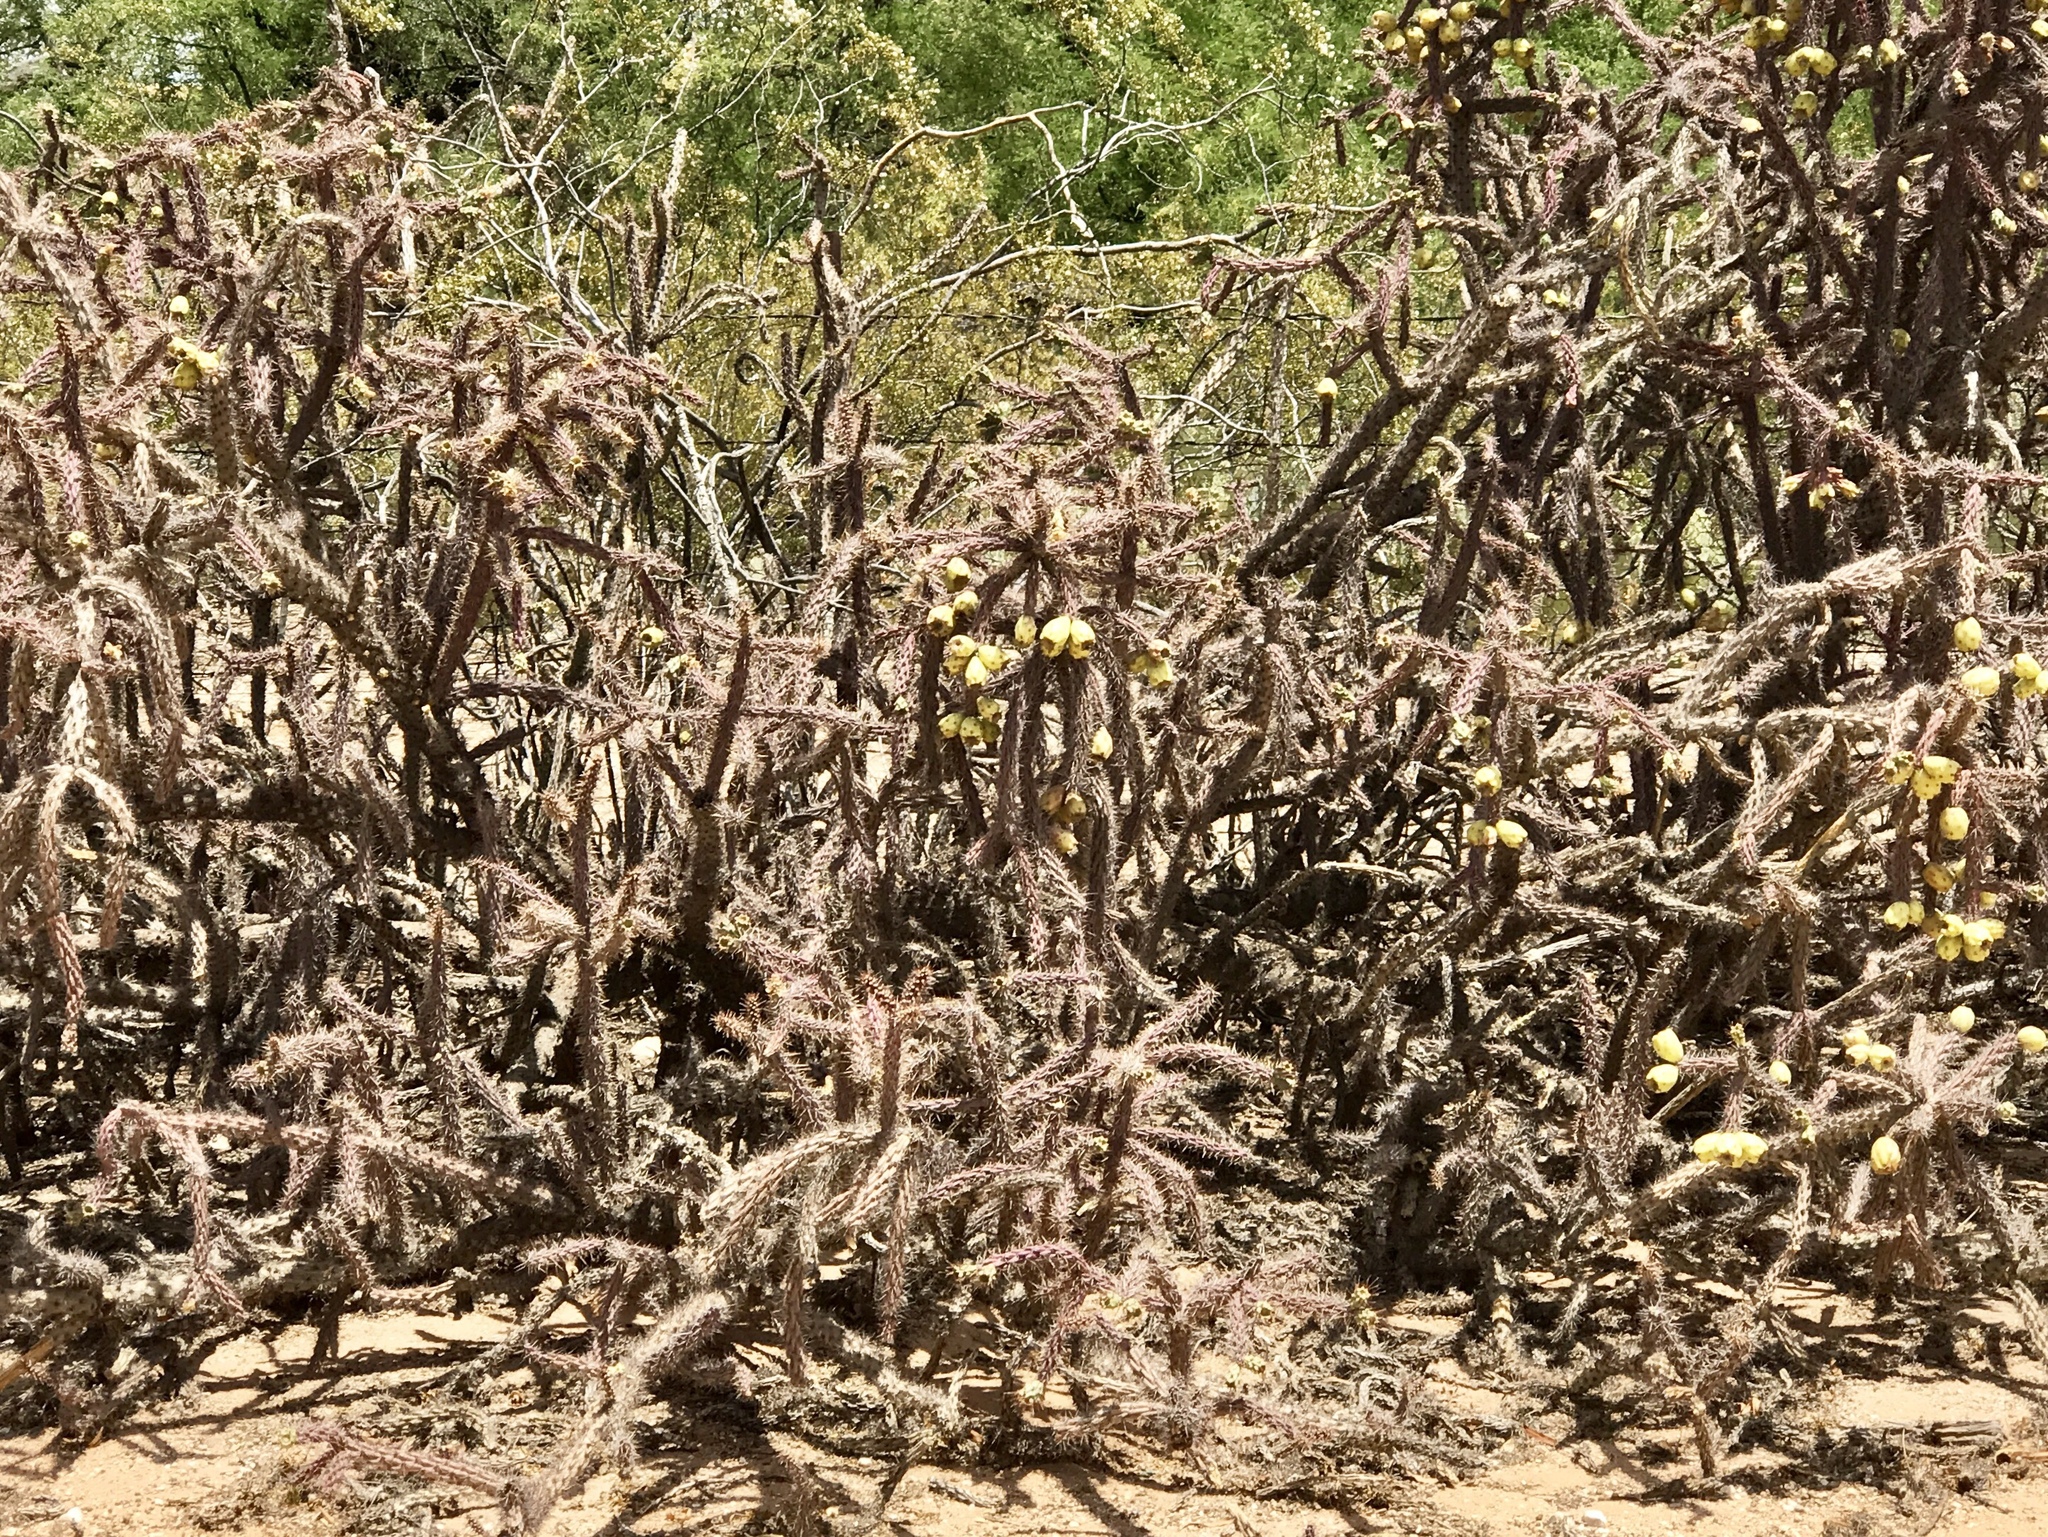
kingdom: Plantae
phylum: Tracheophyta
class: Magnoliopsida
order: Caryophyllales
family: Cactaceae
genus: Cylindropuntia
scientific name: Cylindropuntia thurberi
